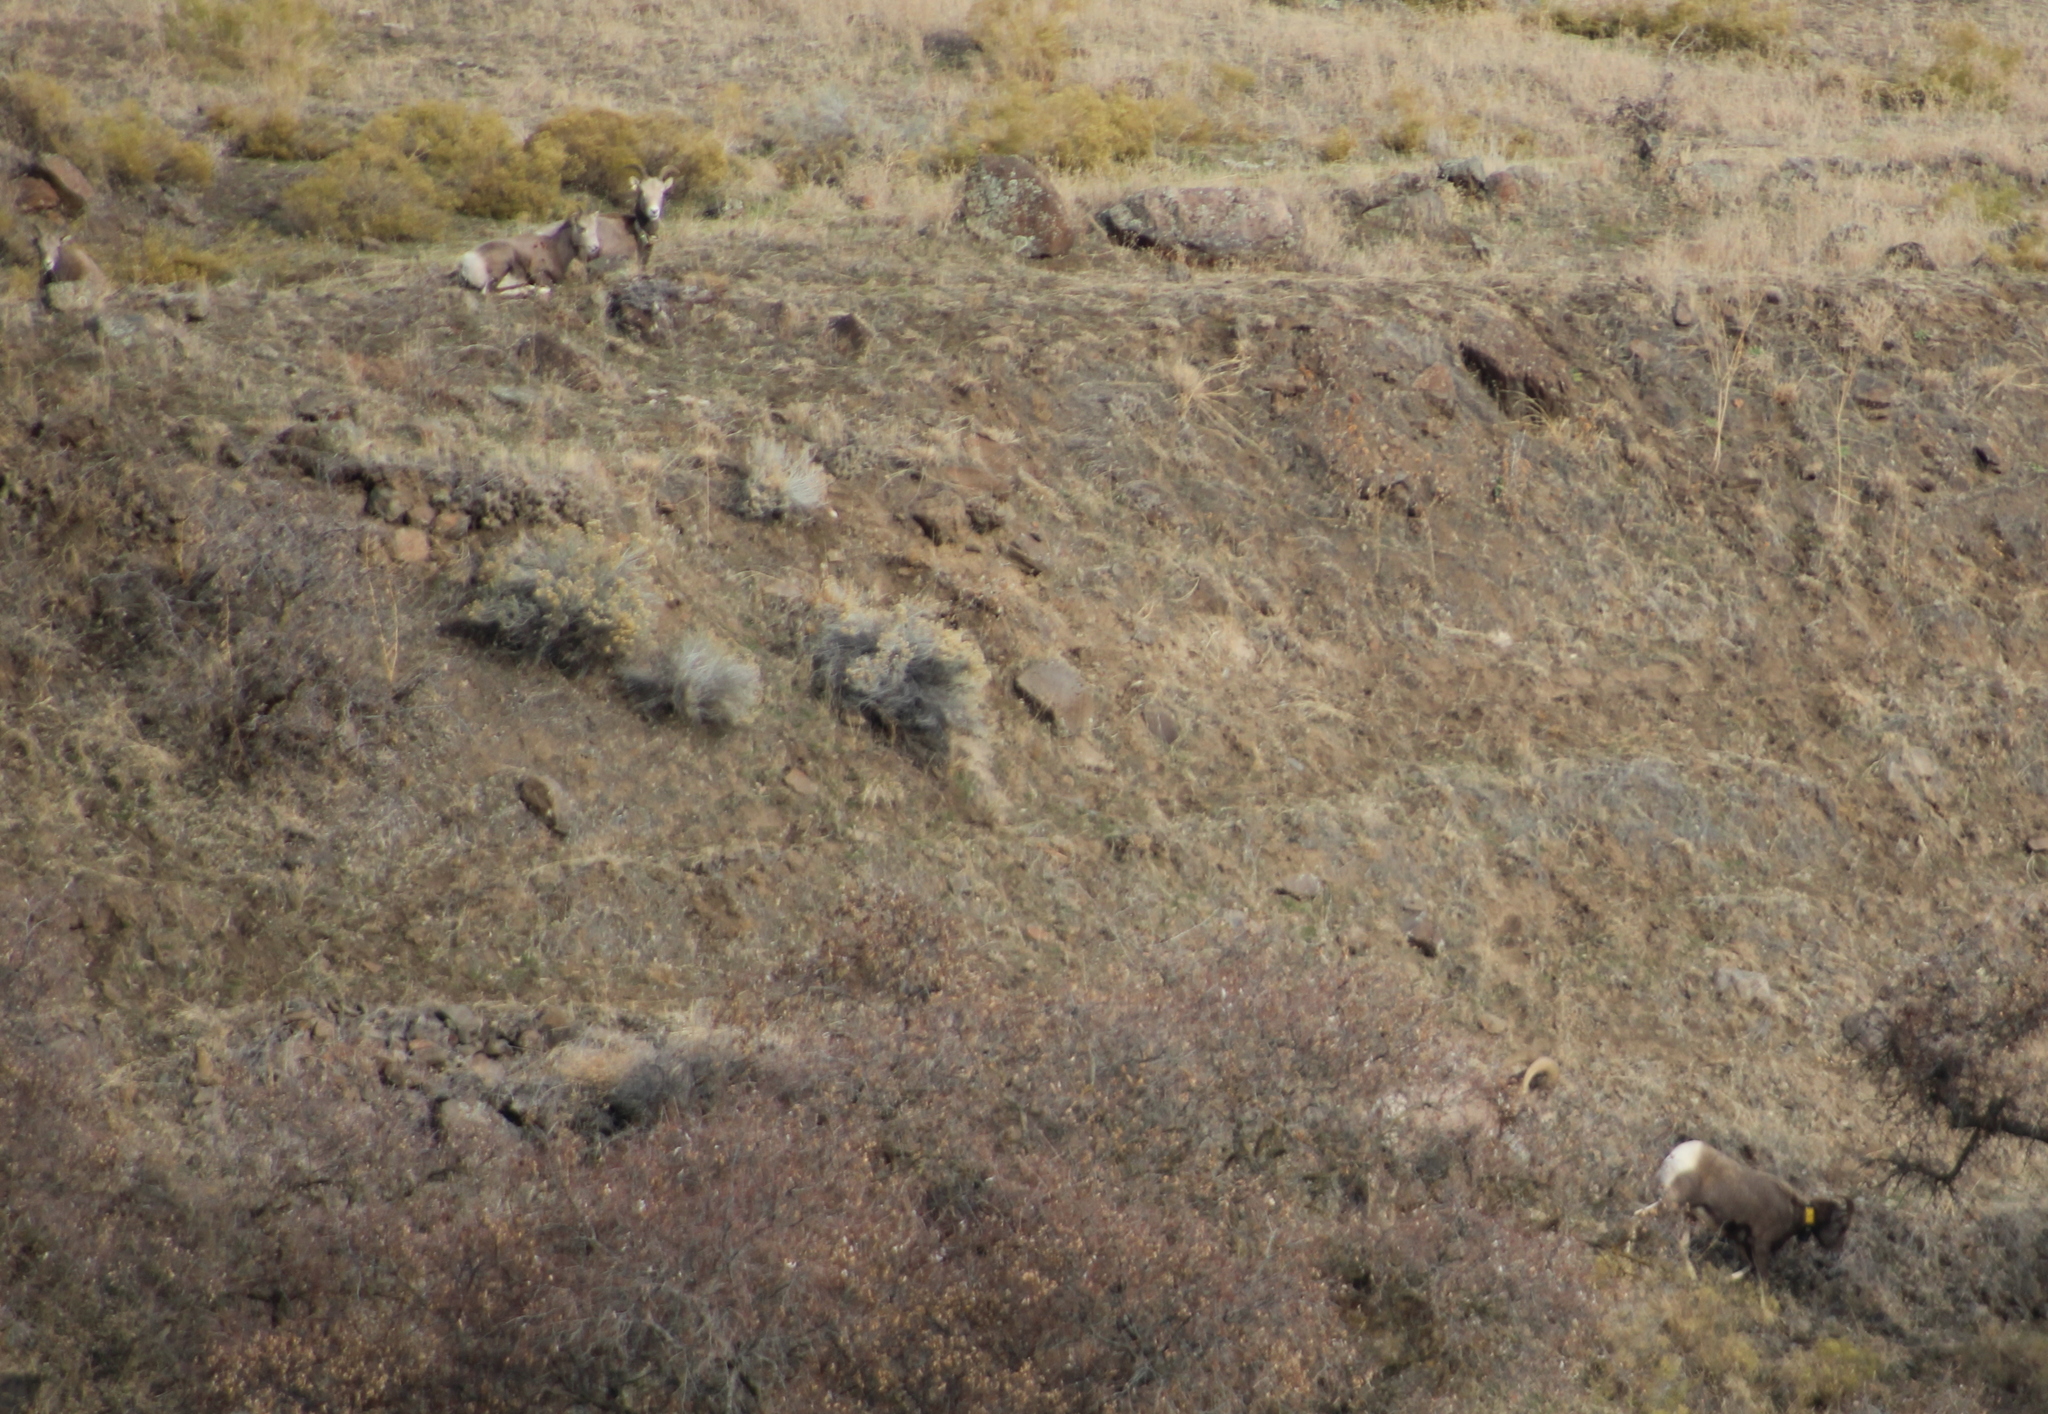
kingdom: Animalia
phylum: Chordata
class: Mammalia
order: Artiodactyla
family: Bovidae
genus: Ovis
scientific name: Ovis canadensis
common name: Bighorn sheep
